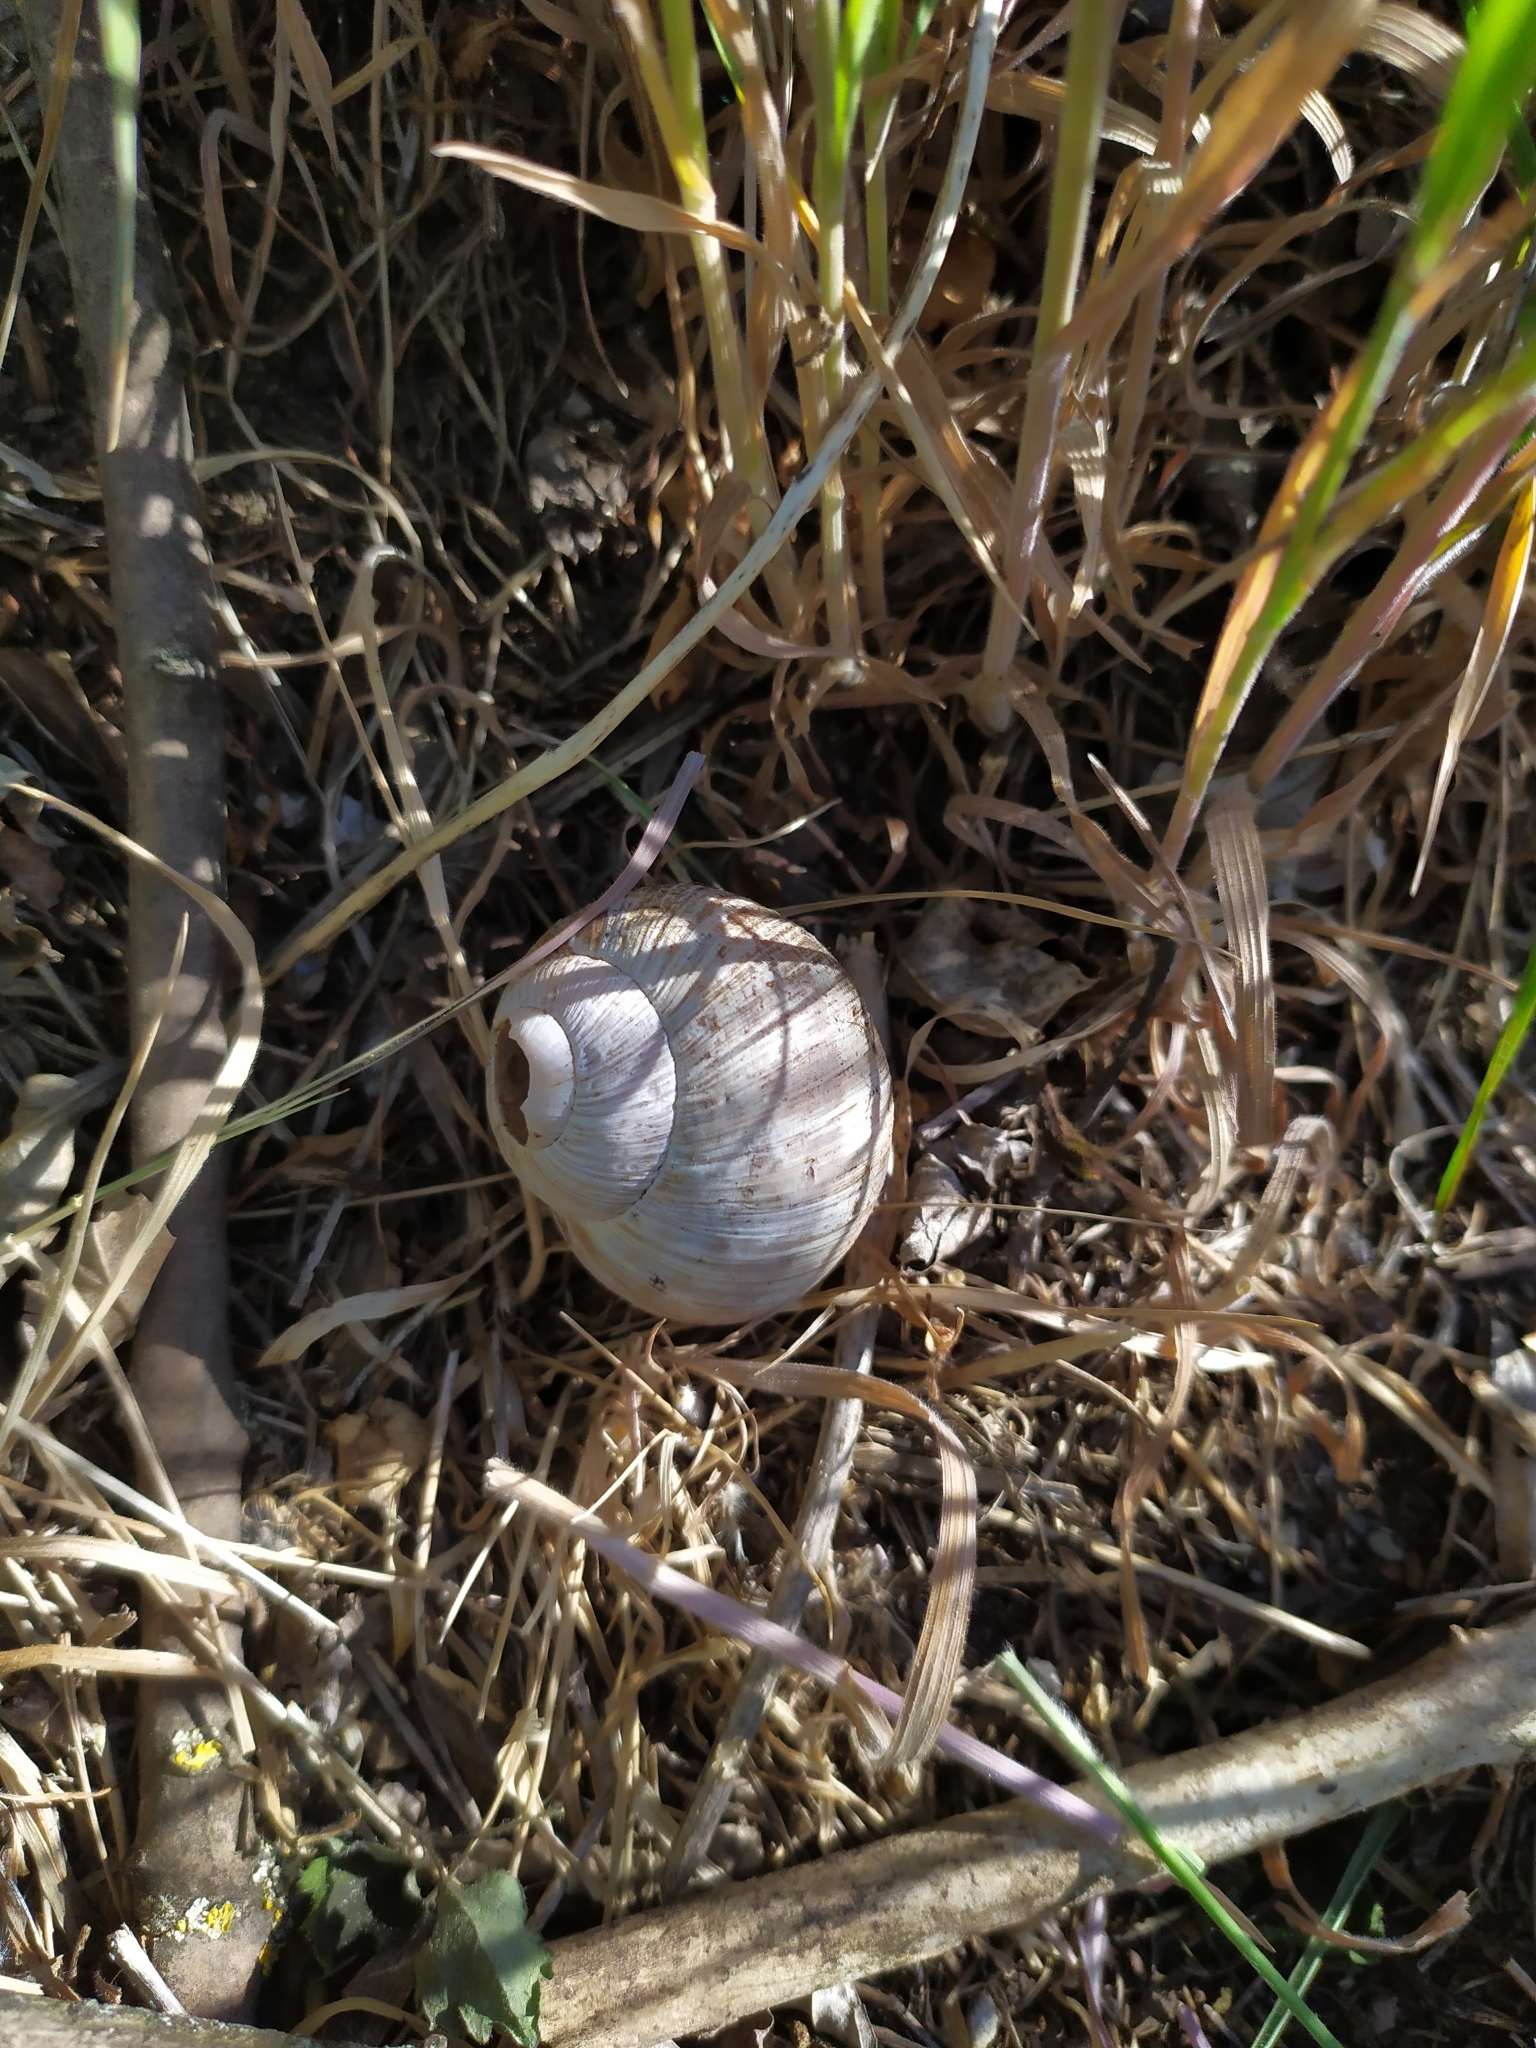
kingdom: Animalia
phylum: Mollusca
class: Gastropoda
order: Stylommatophora
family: Helicidae
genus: Helix
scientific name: Helix pomatia
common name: Roman snail
